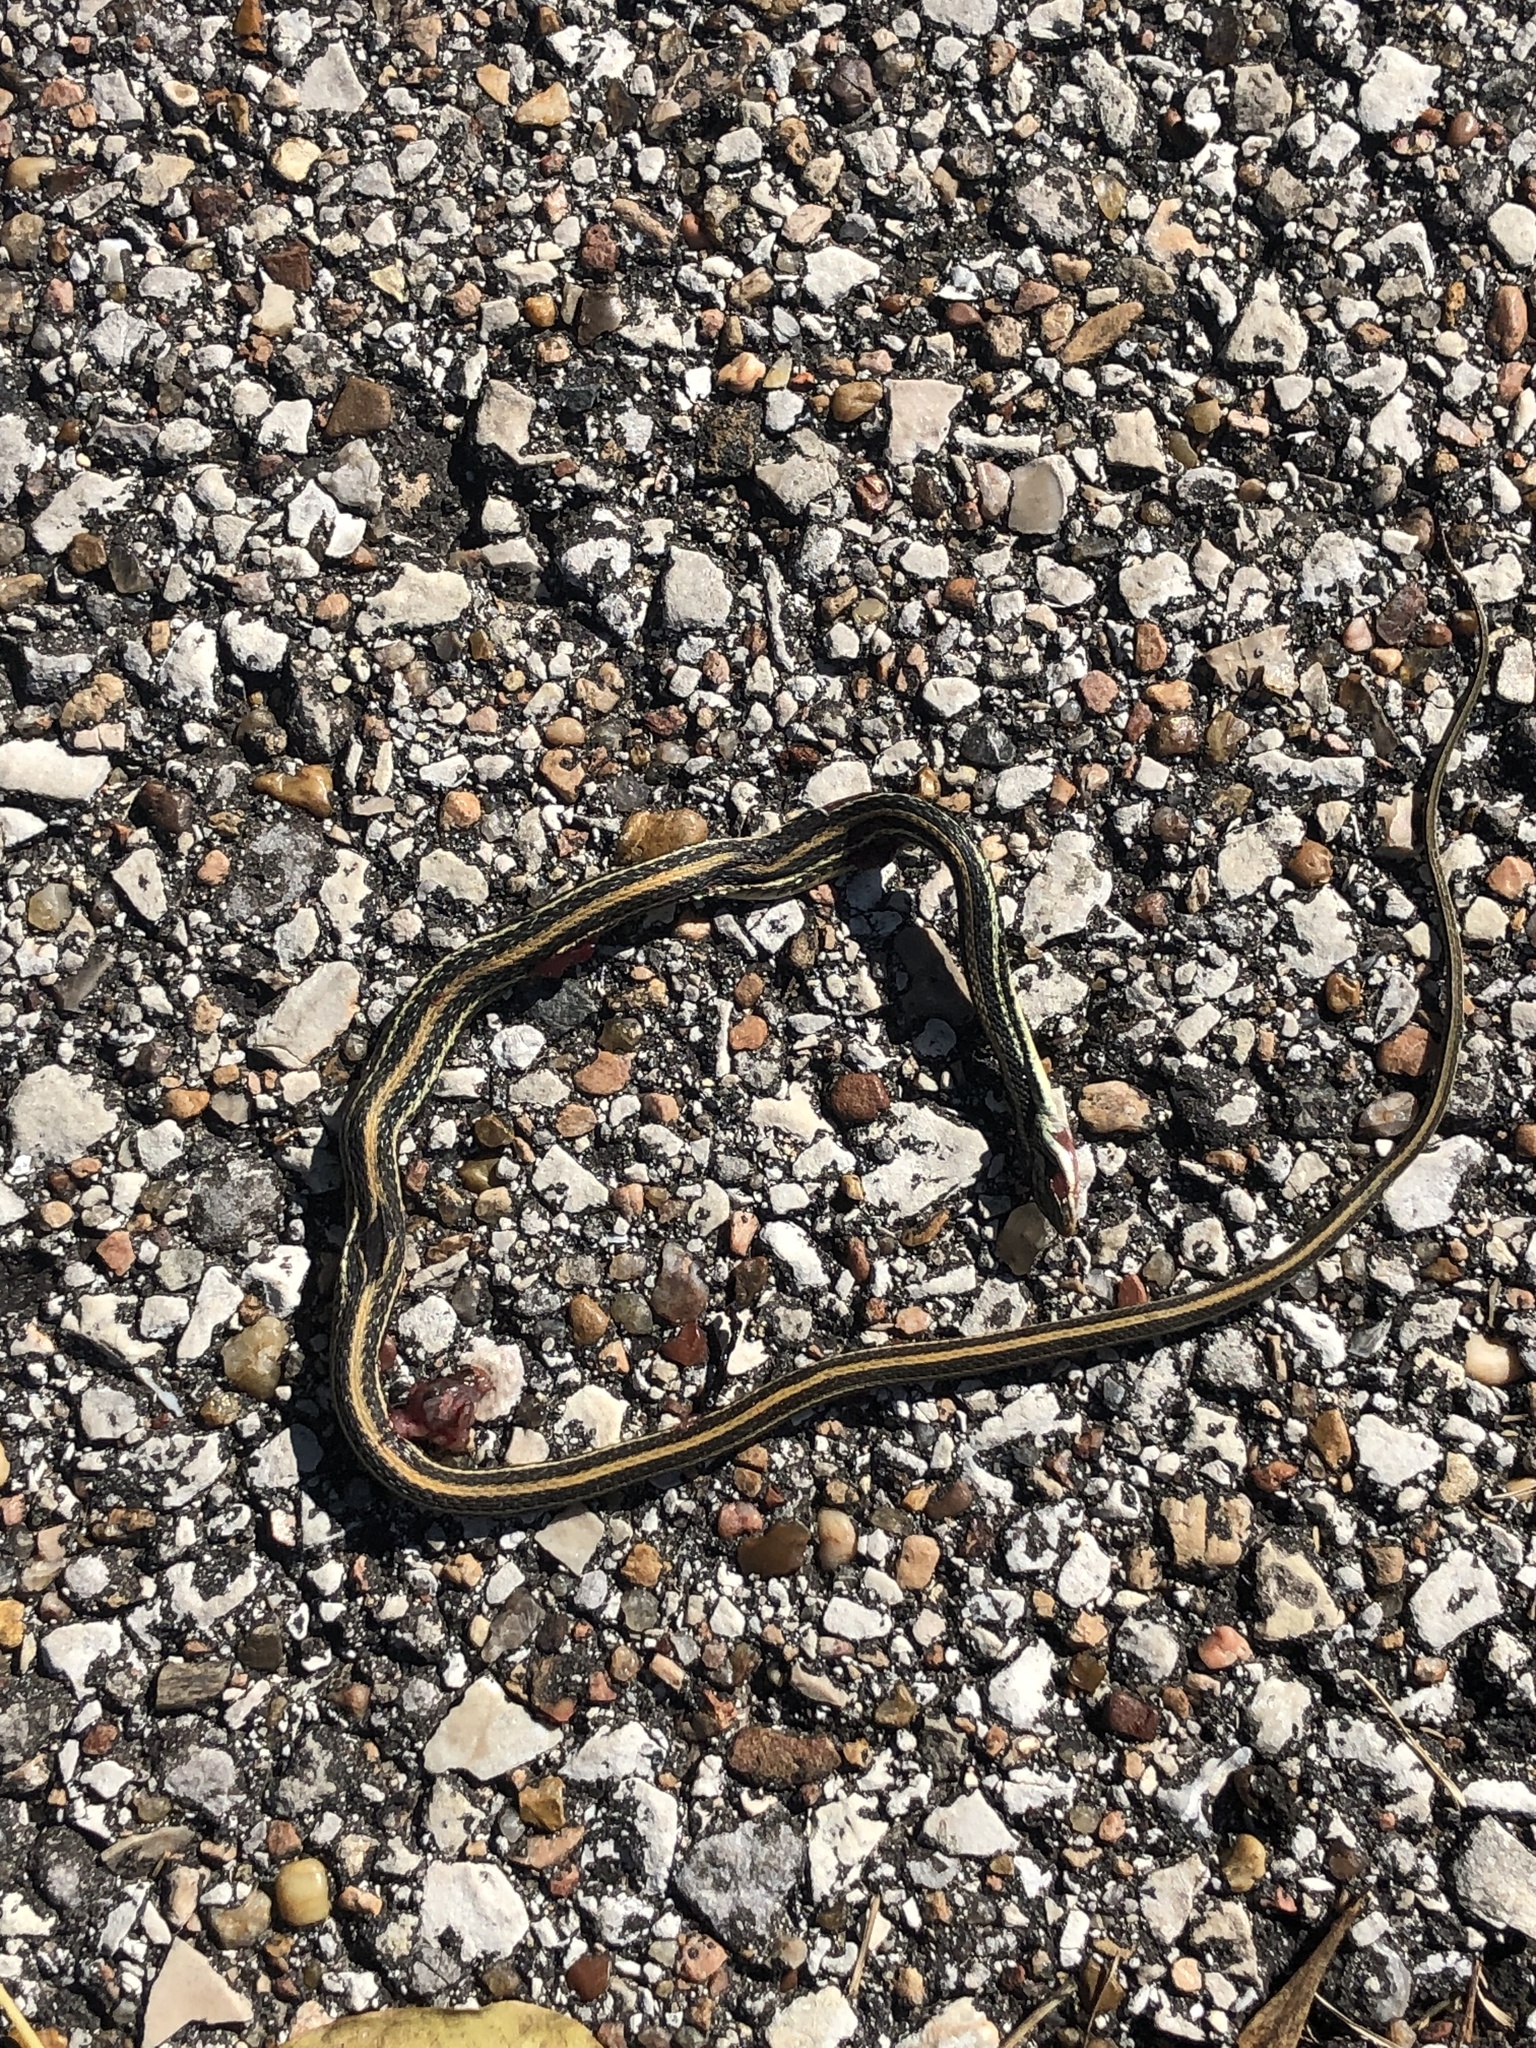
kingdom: Animalia
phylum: Chordata
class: Squamata
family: Colubridae
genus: Thamnophis
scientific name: Thamnophis proximus
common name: Western ribbon snake
